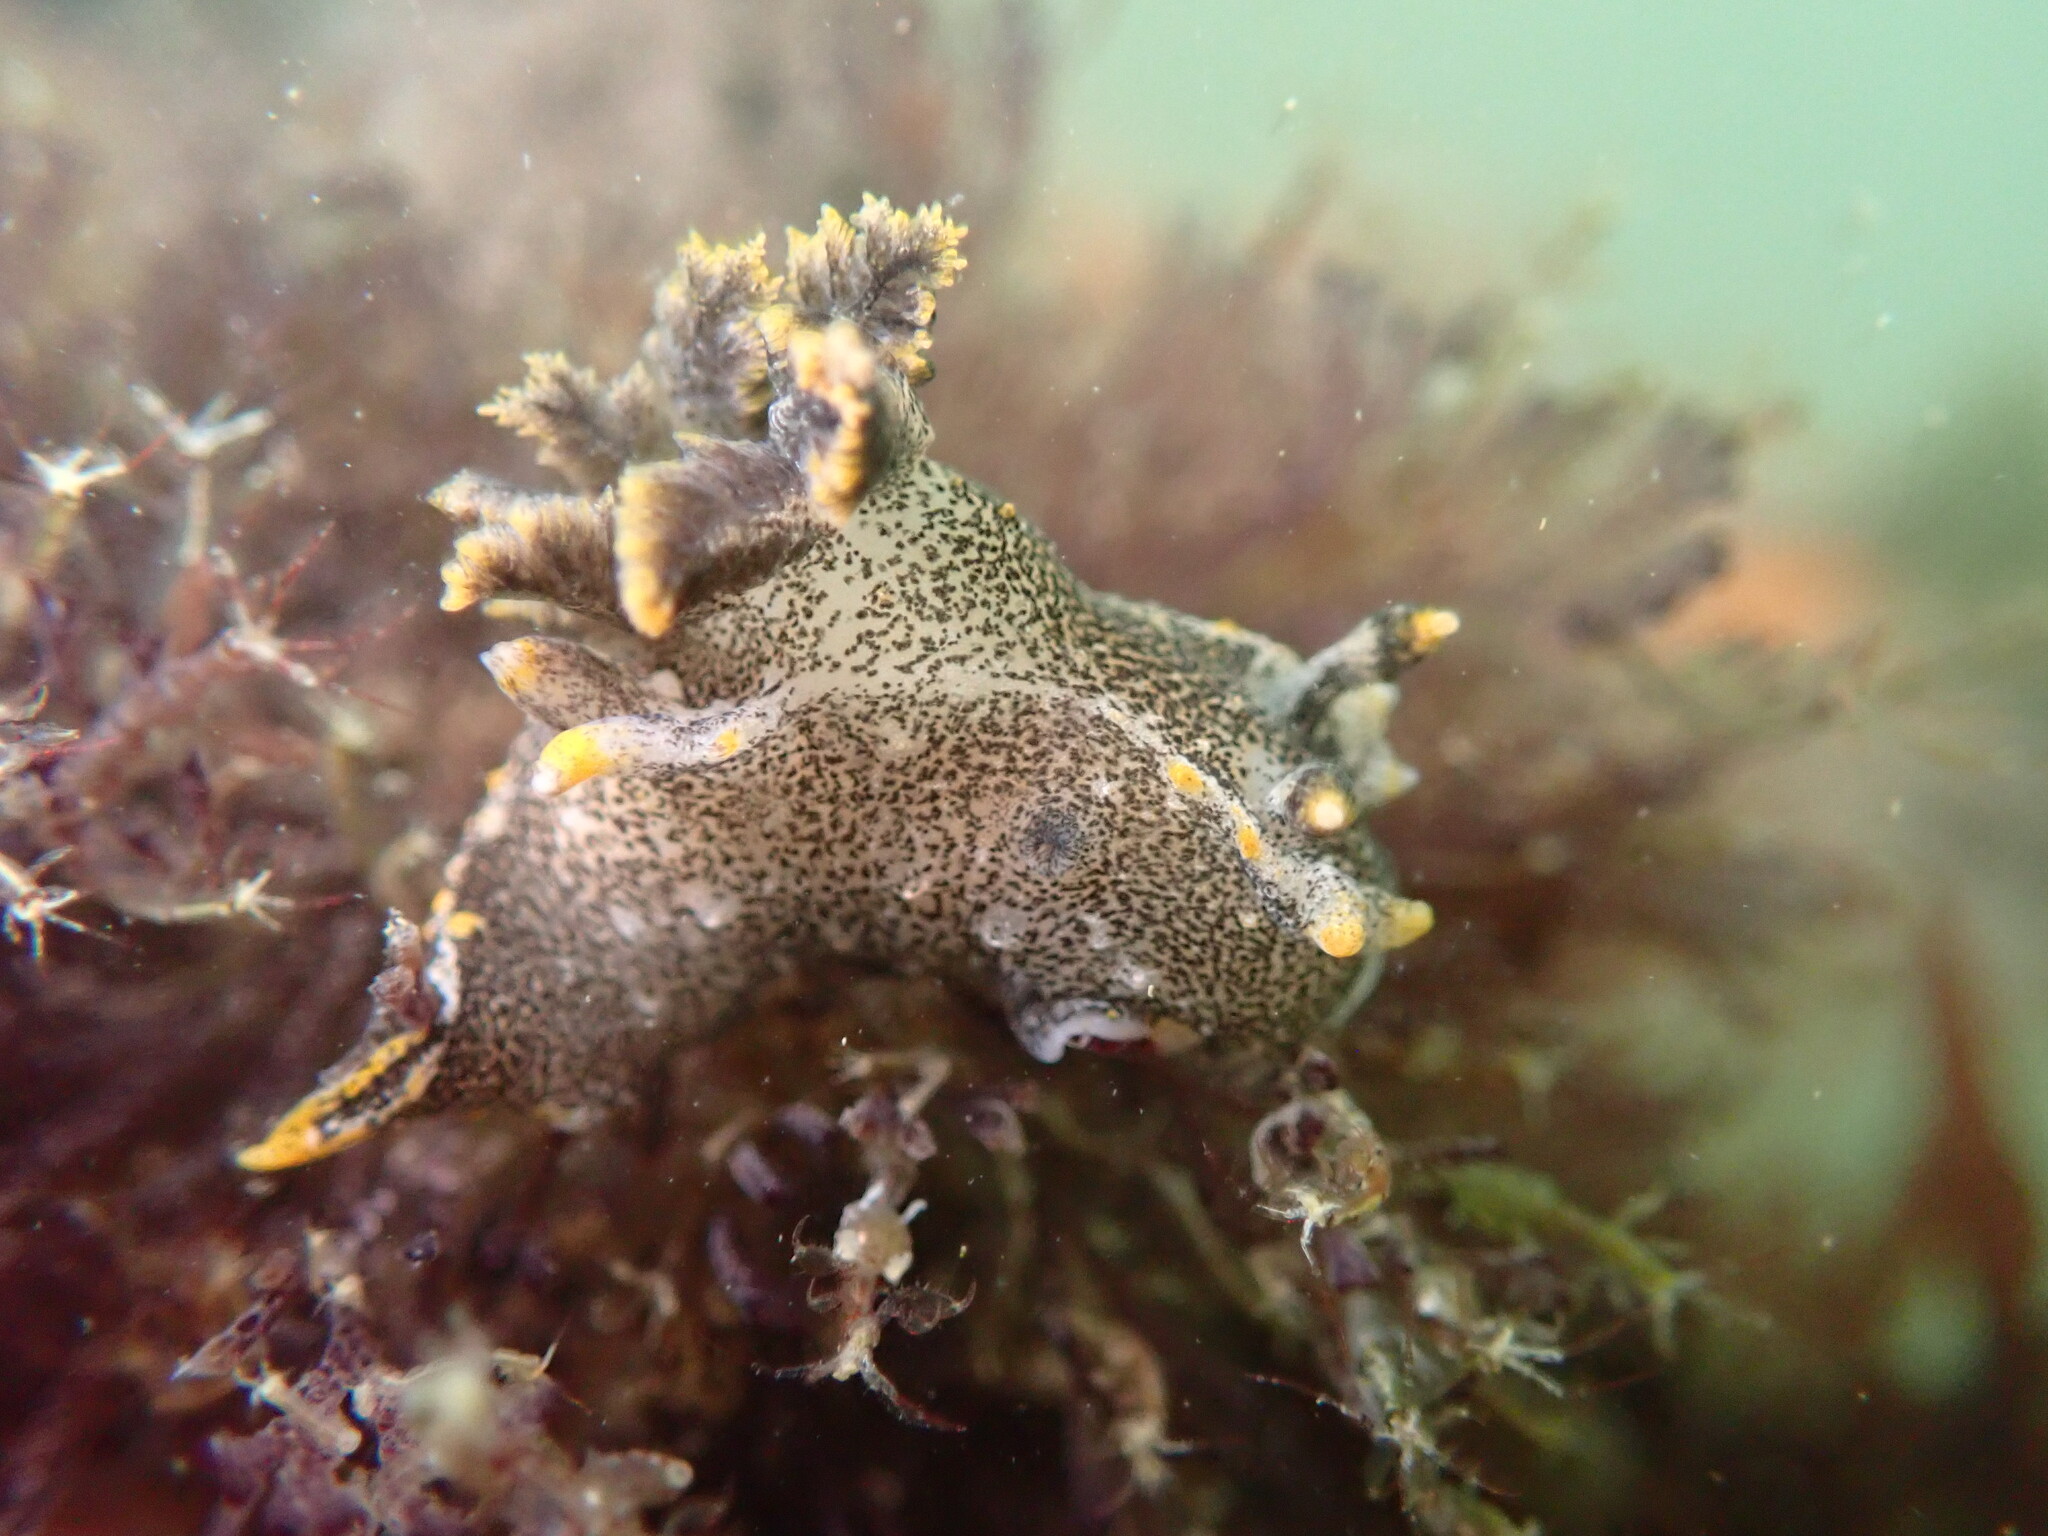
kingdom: Animalia
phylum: Mollusca
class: Gastropoda
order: Nudibranchia
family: Polyceridae
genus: Polycera
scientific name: Polycera hedgpethi
